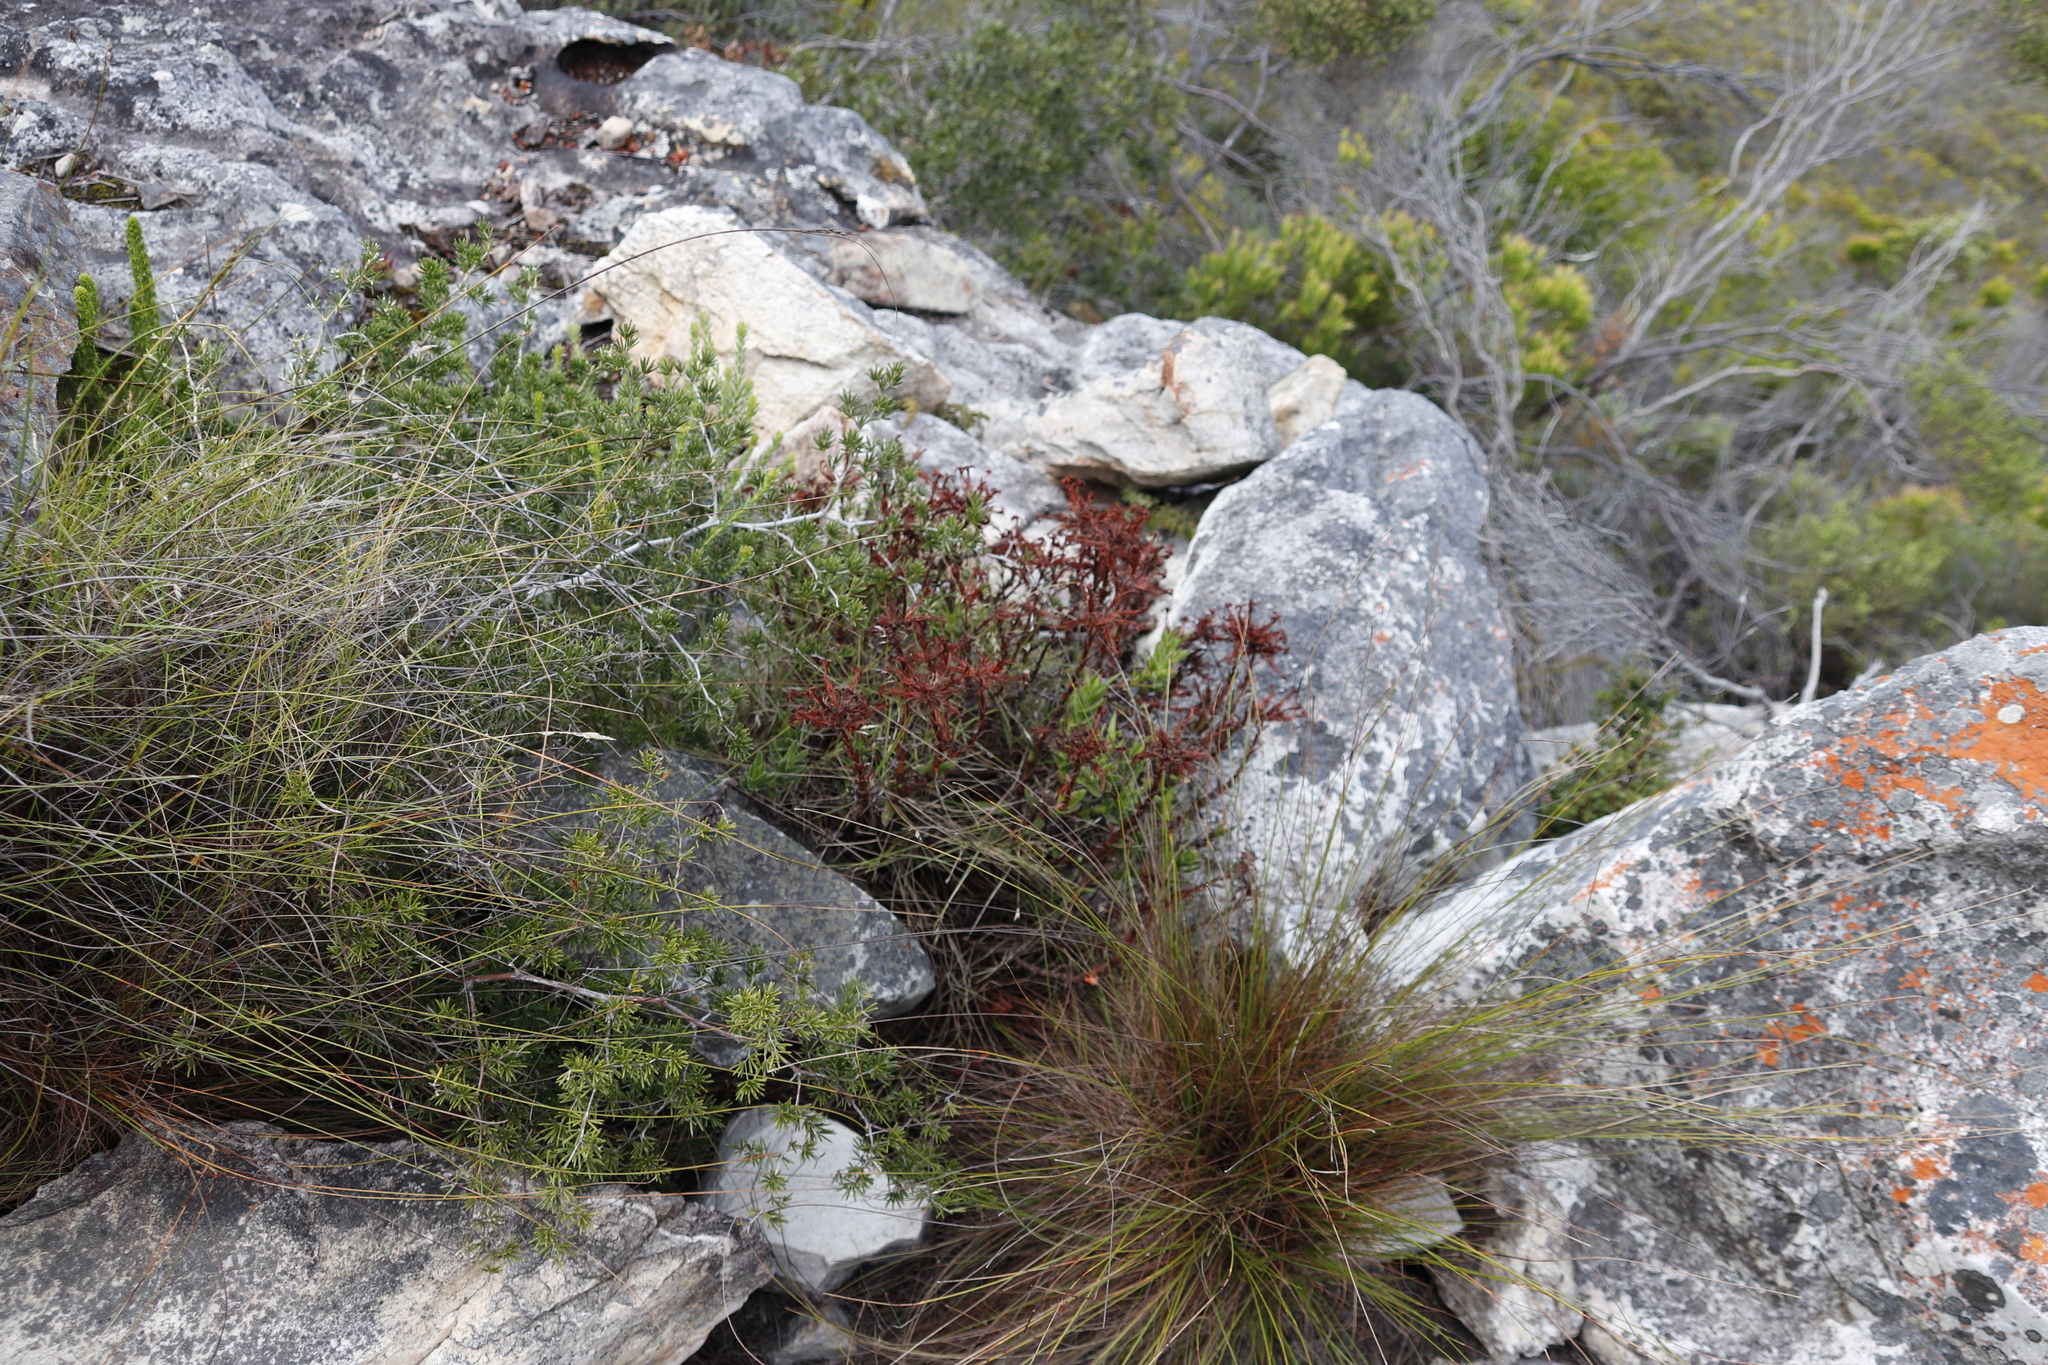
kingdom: Plantae
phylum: Tracheophyta
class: Magnoliopsida
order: Saxifragales
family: Crassulaceae
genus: Crassula
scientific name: Crassula fascicularis
